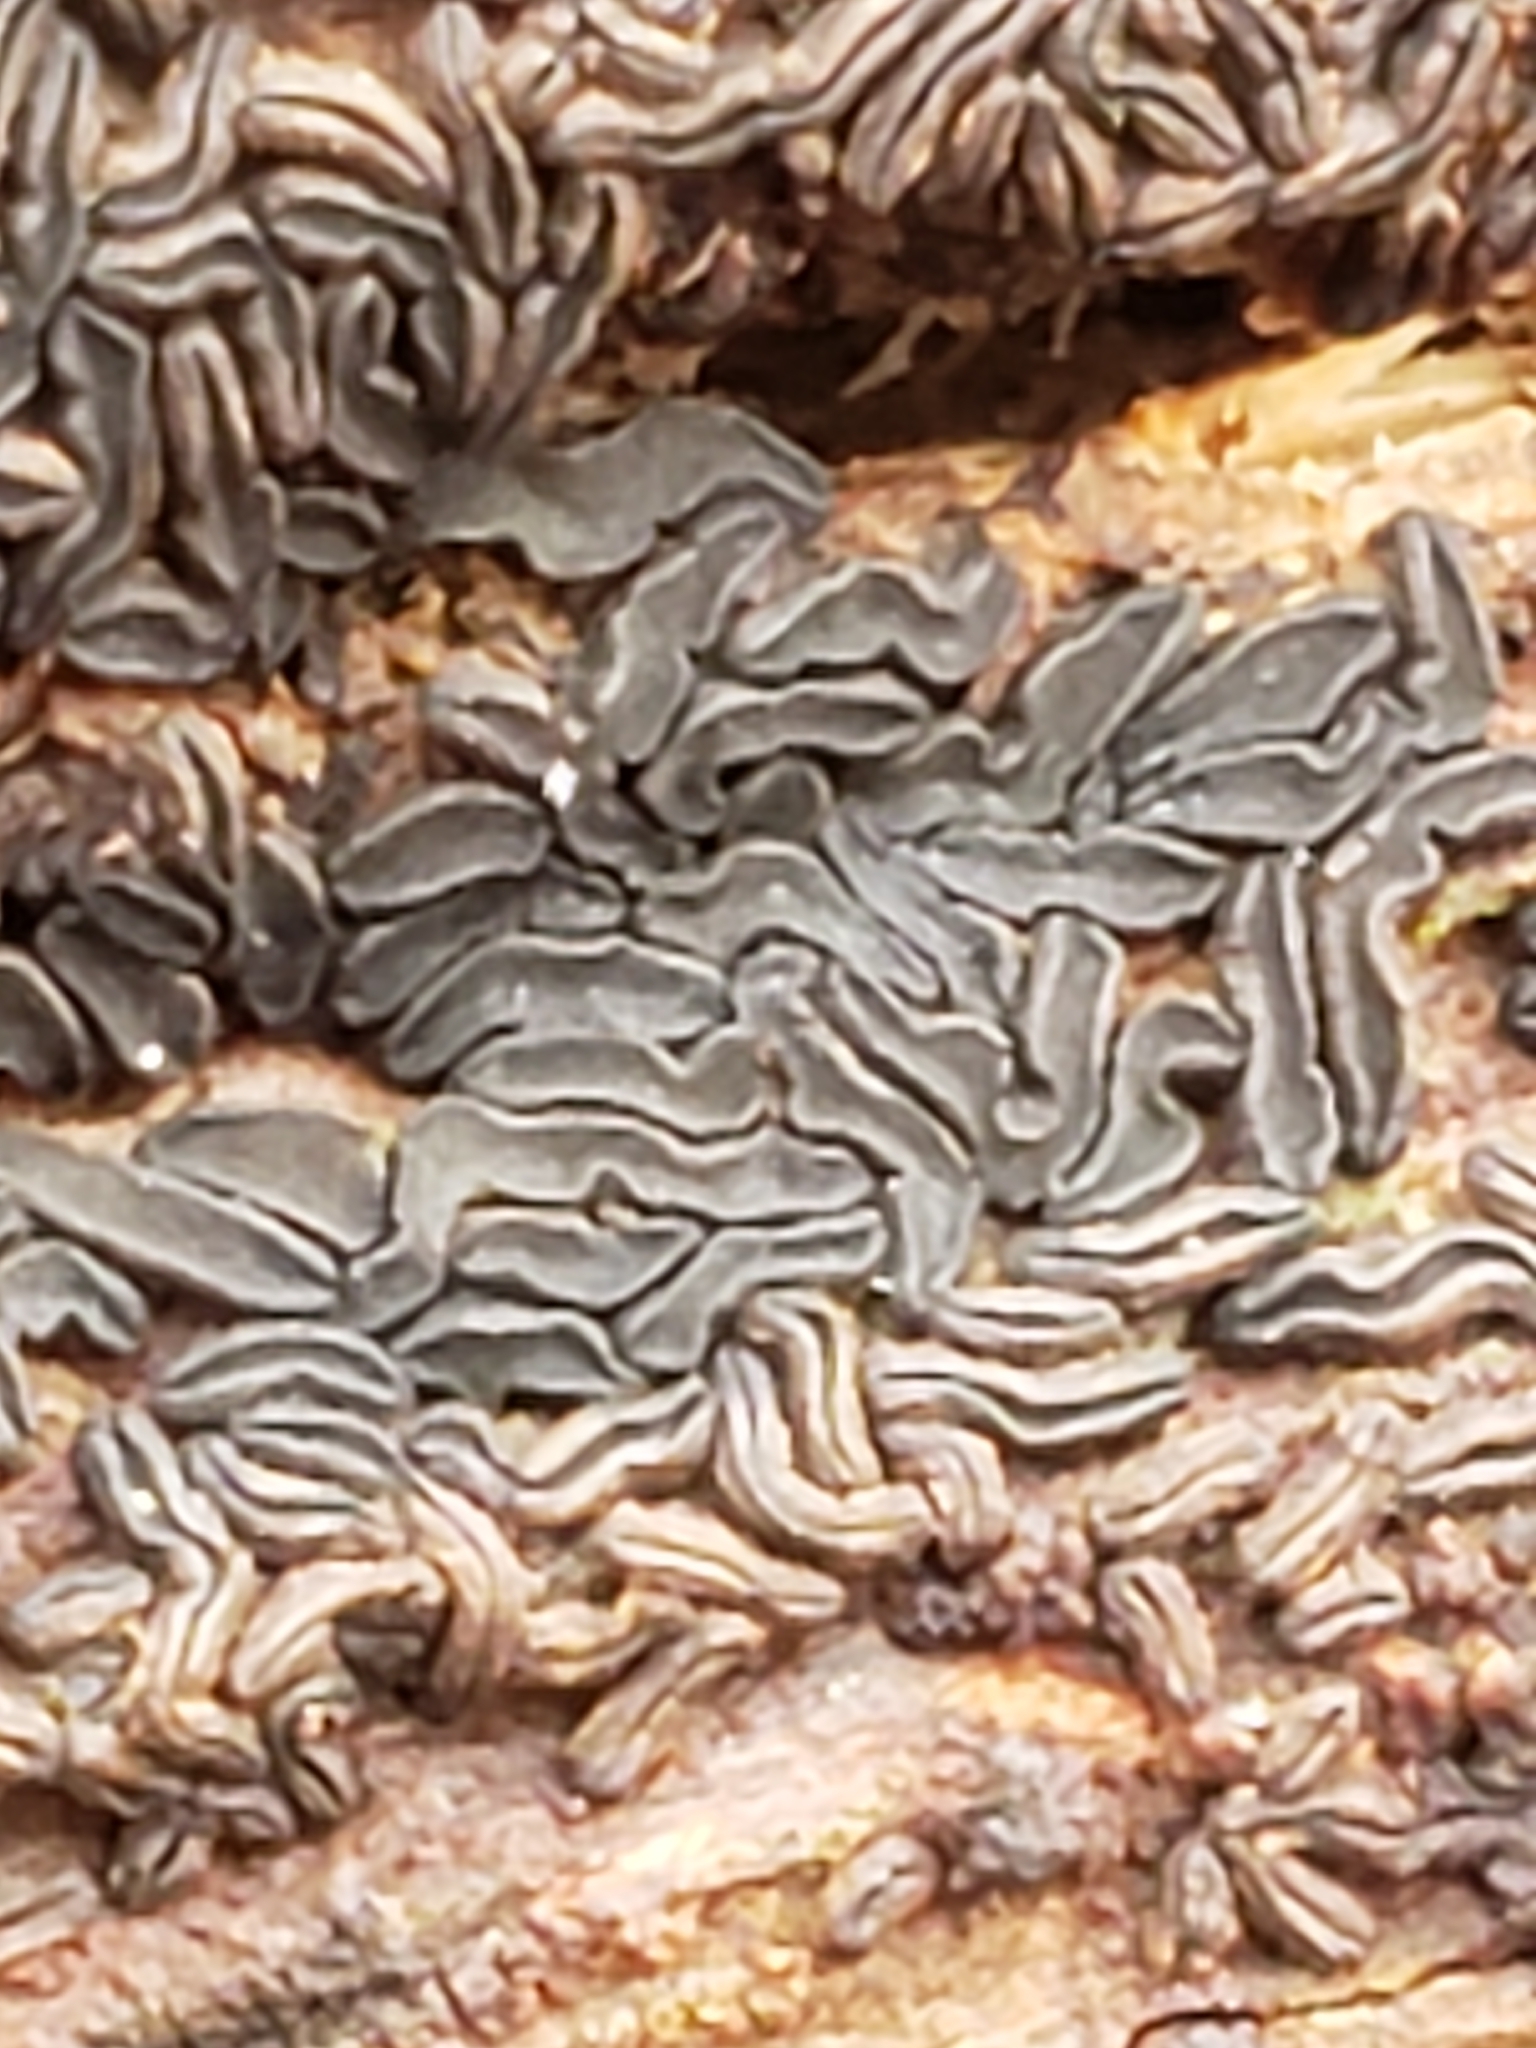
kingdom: Fungi
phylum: Ascomycota
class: Leotiomycetes
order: Helotiales
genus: Angelina
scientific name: Angelina rufescens
